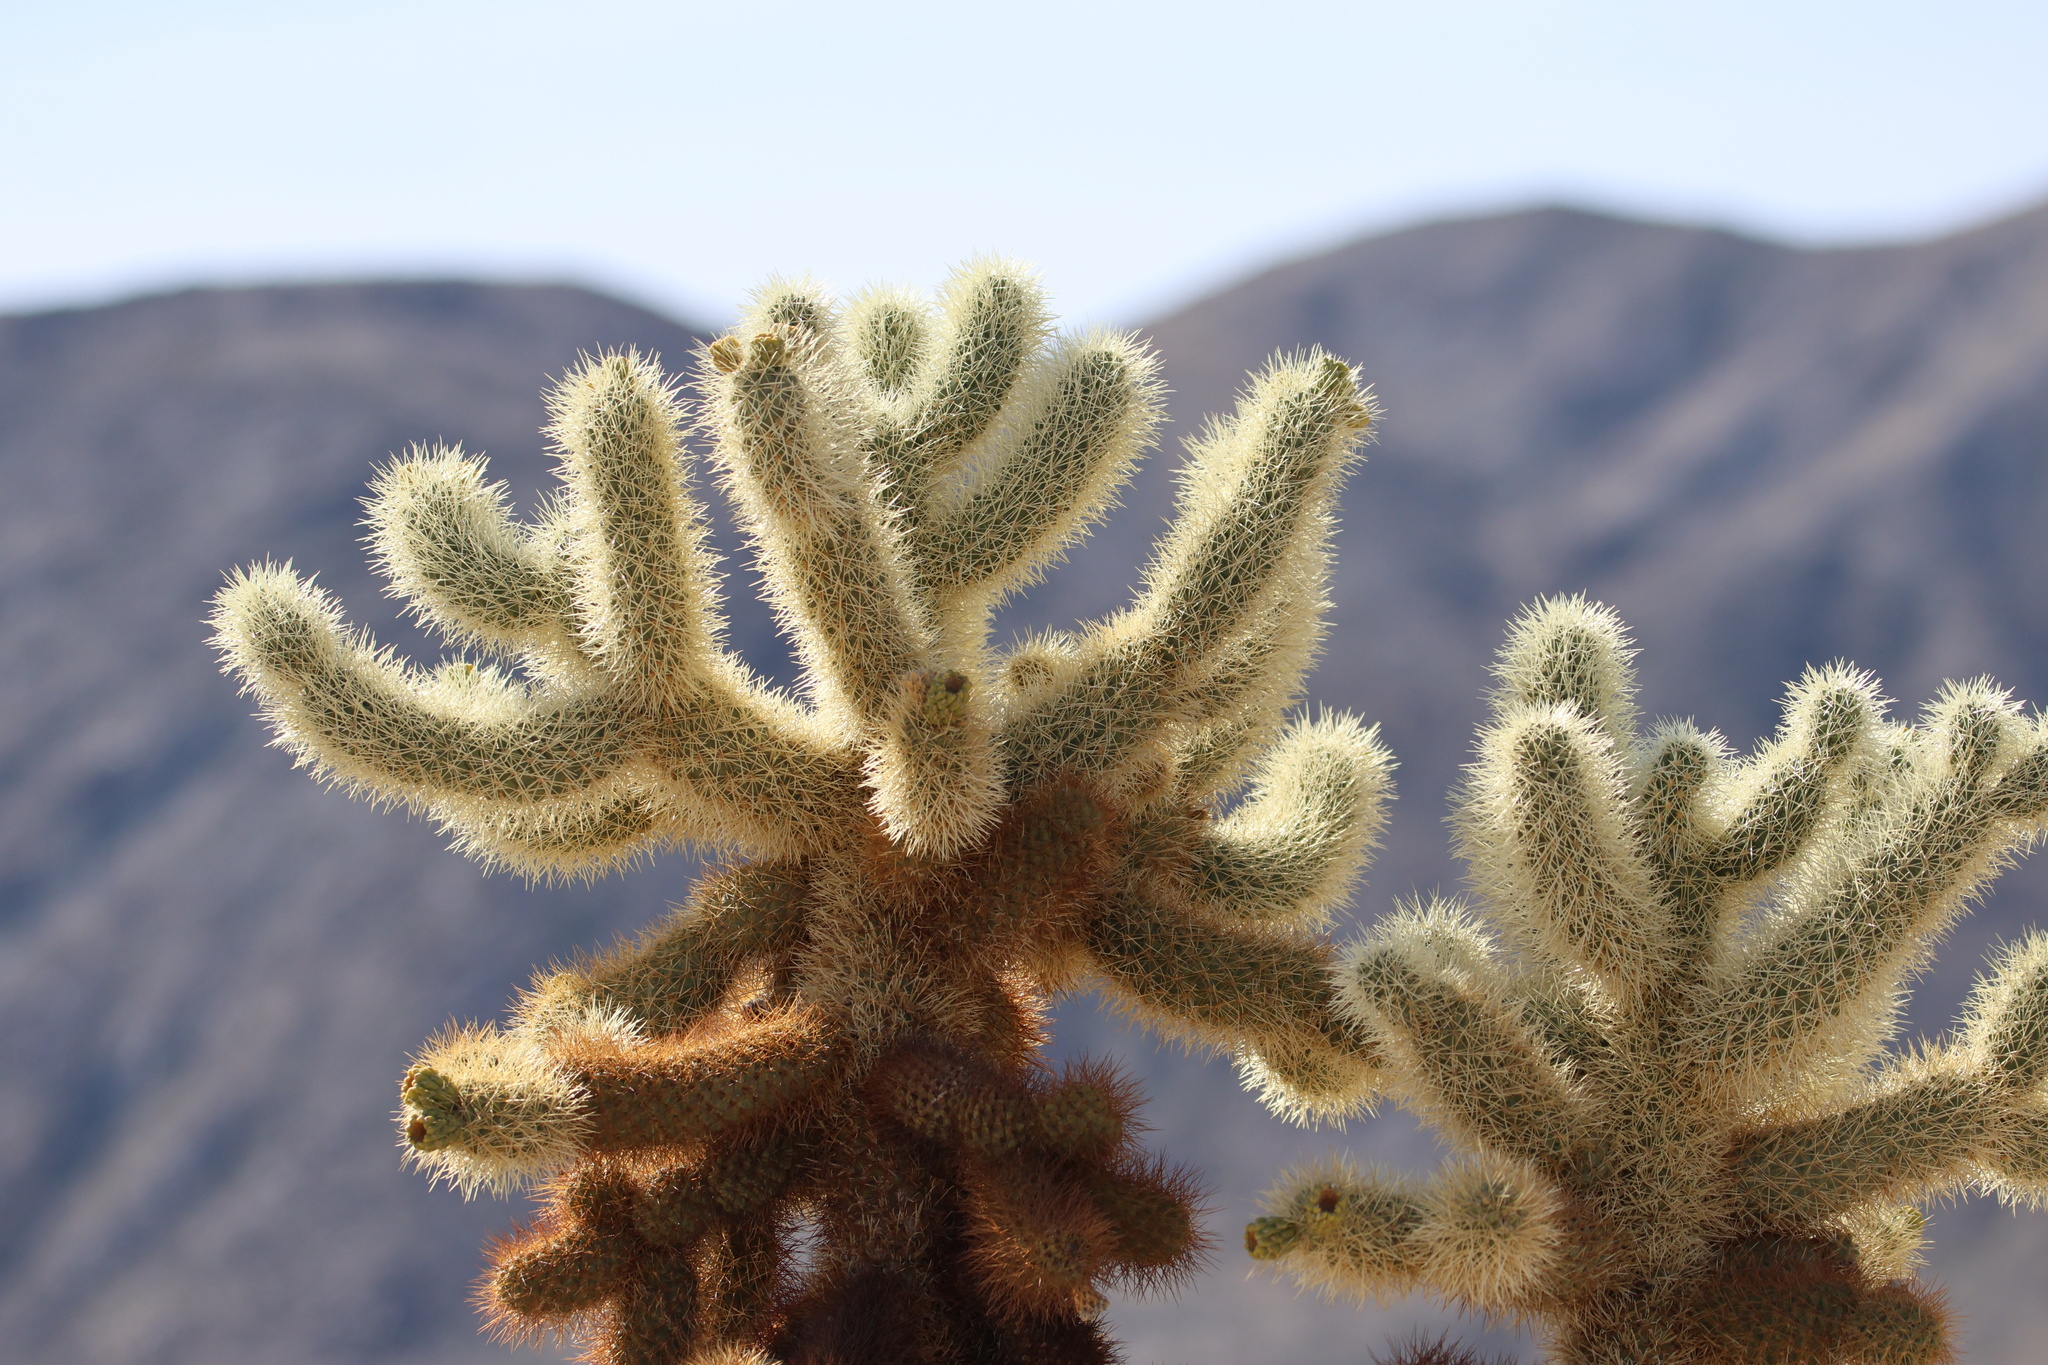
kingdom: Plantae
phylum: Tracheophyta
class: Magnoliopsida
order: Caryophyllales
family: Cactaceae
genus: Cylindropuntia
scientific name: Cylindropuntia fosbergii
